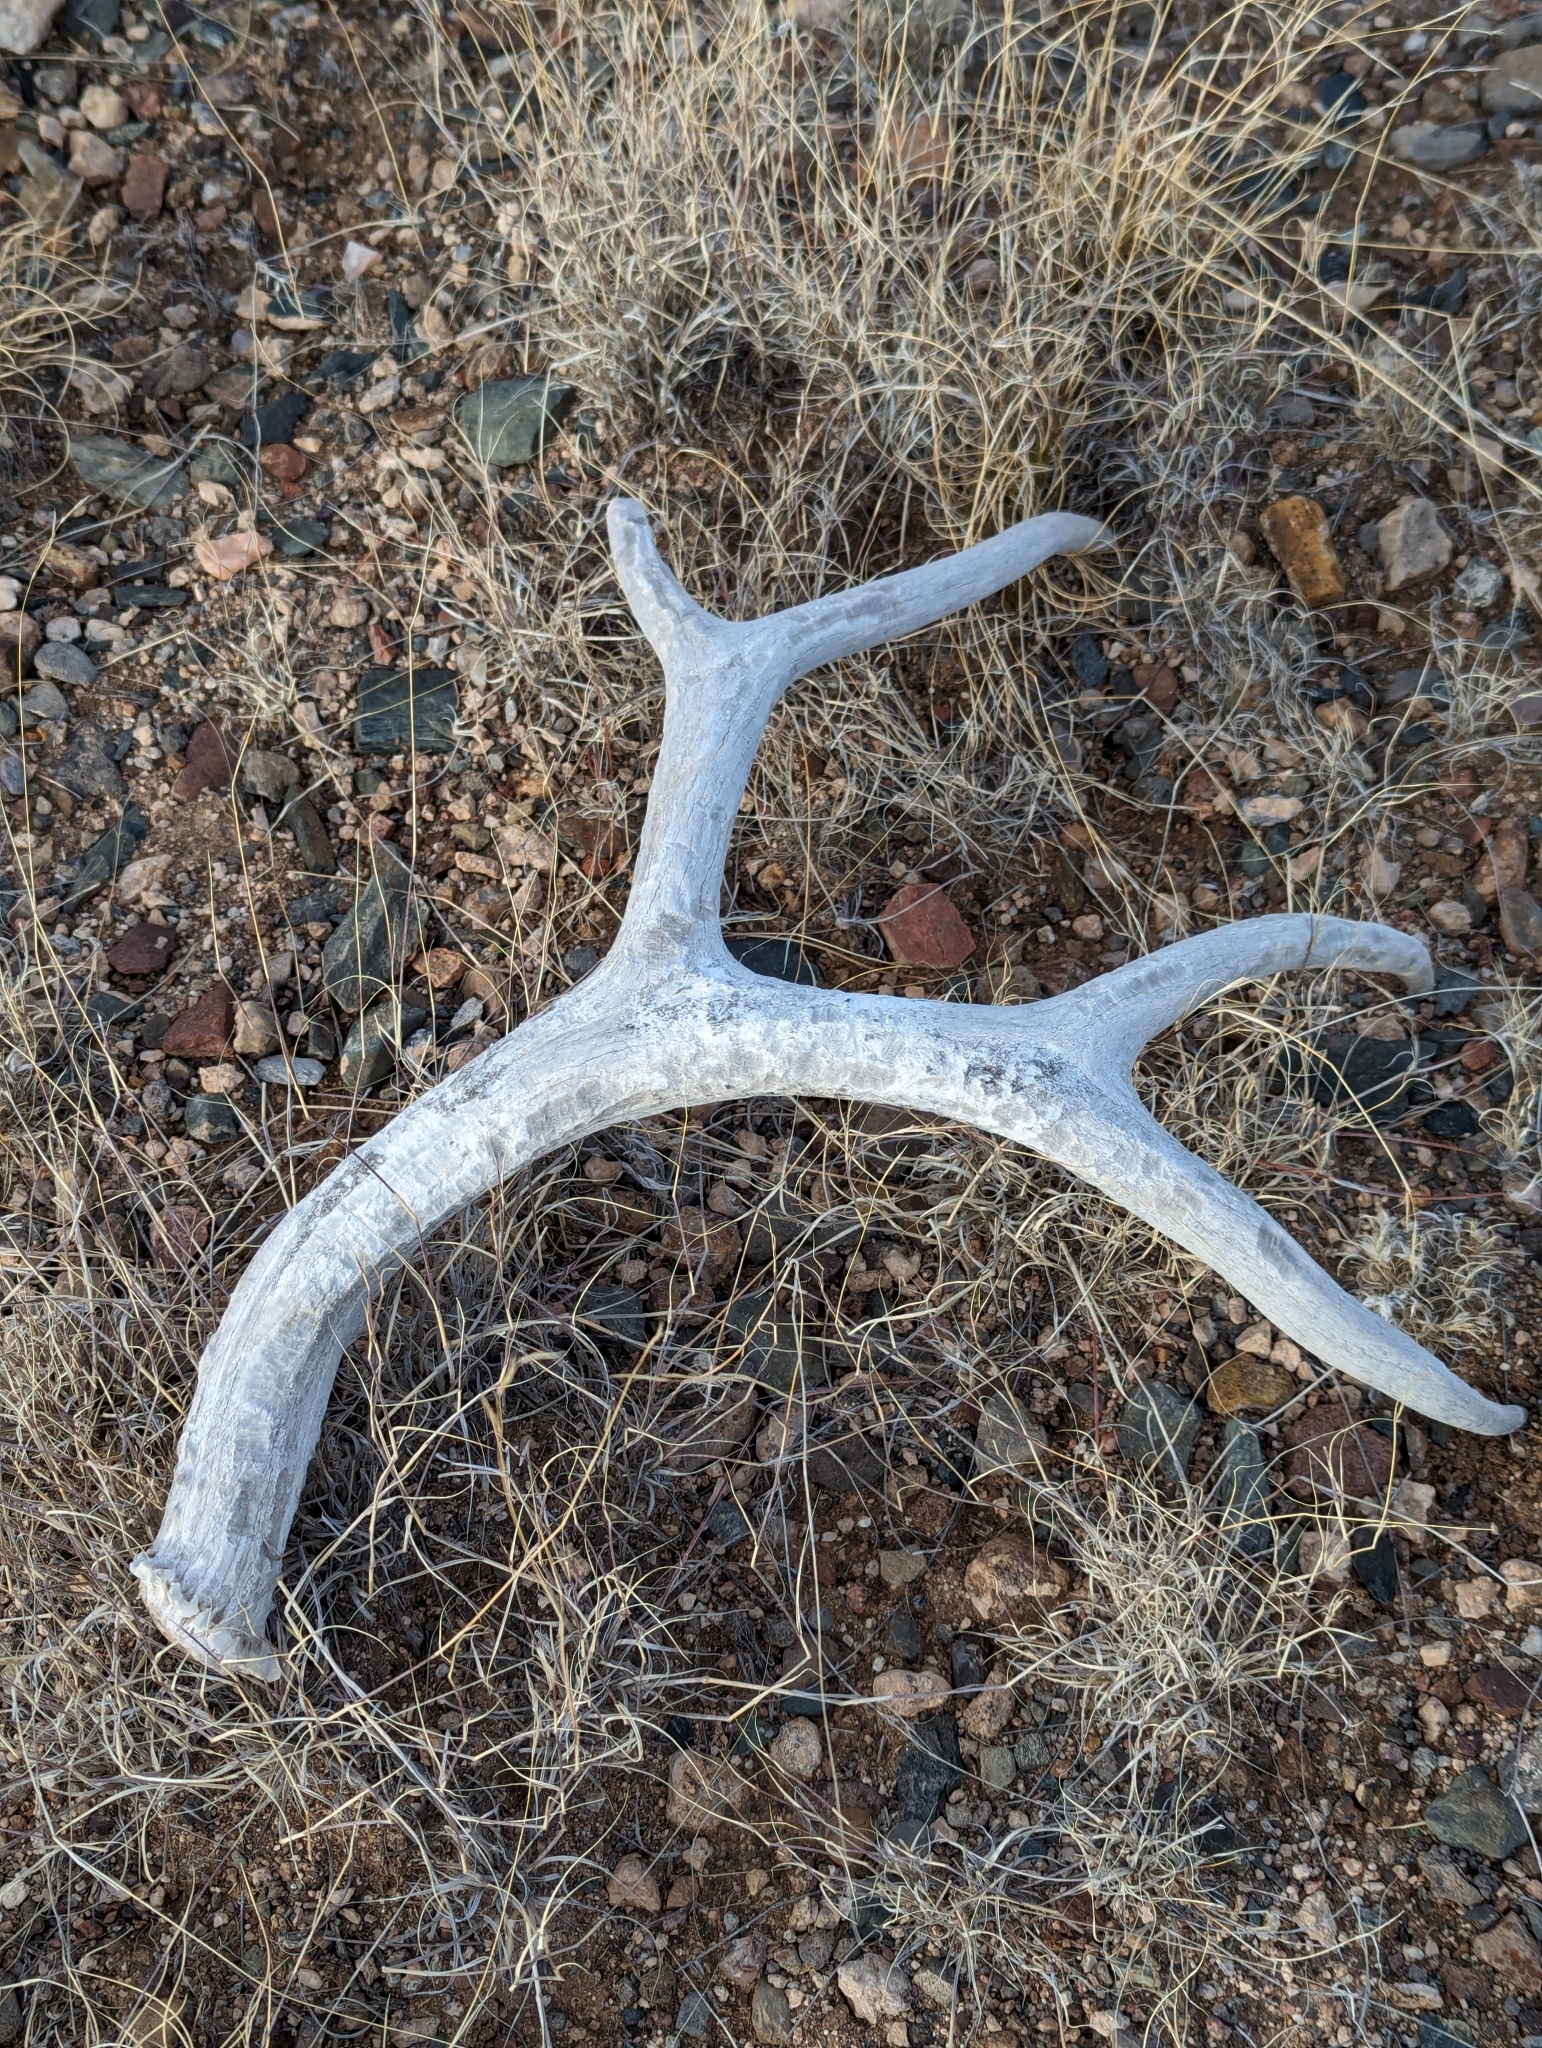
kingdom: Animalia
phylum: Chordata
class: Mammalia
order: Artiodactyla
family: Cervidae
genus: Odocoileus
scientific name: Odocoileus hemionus
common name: Mule deer
